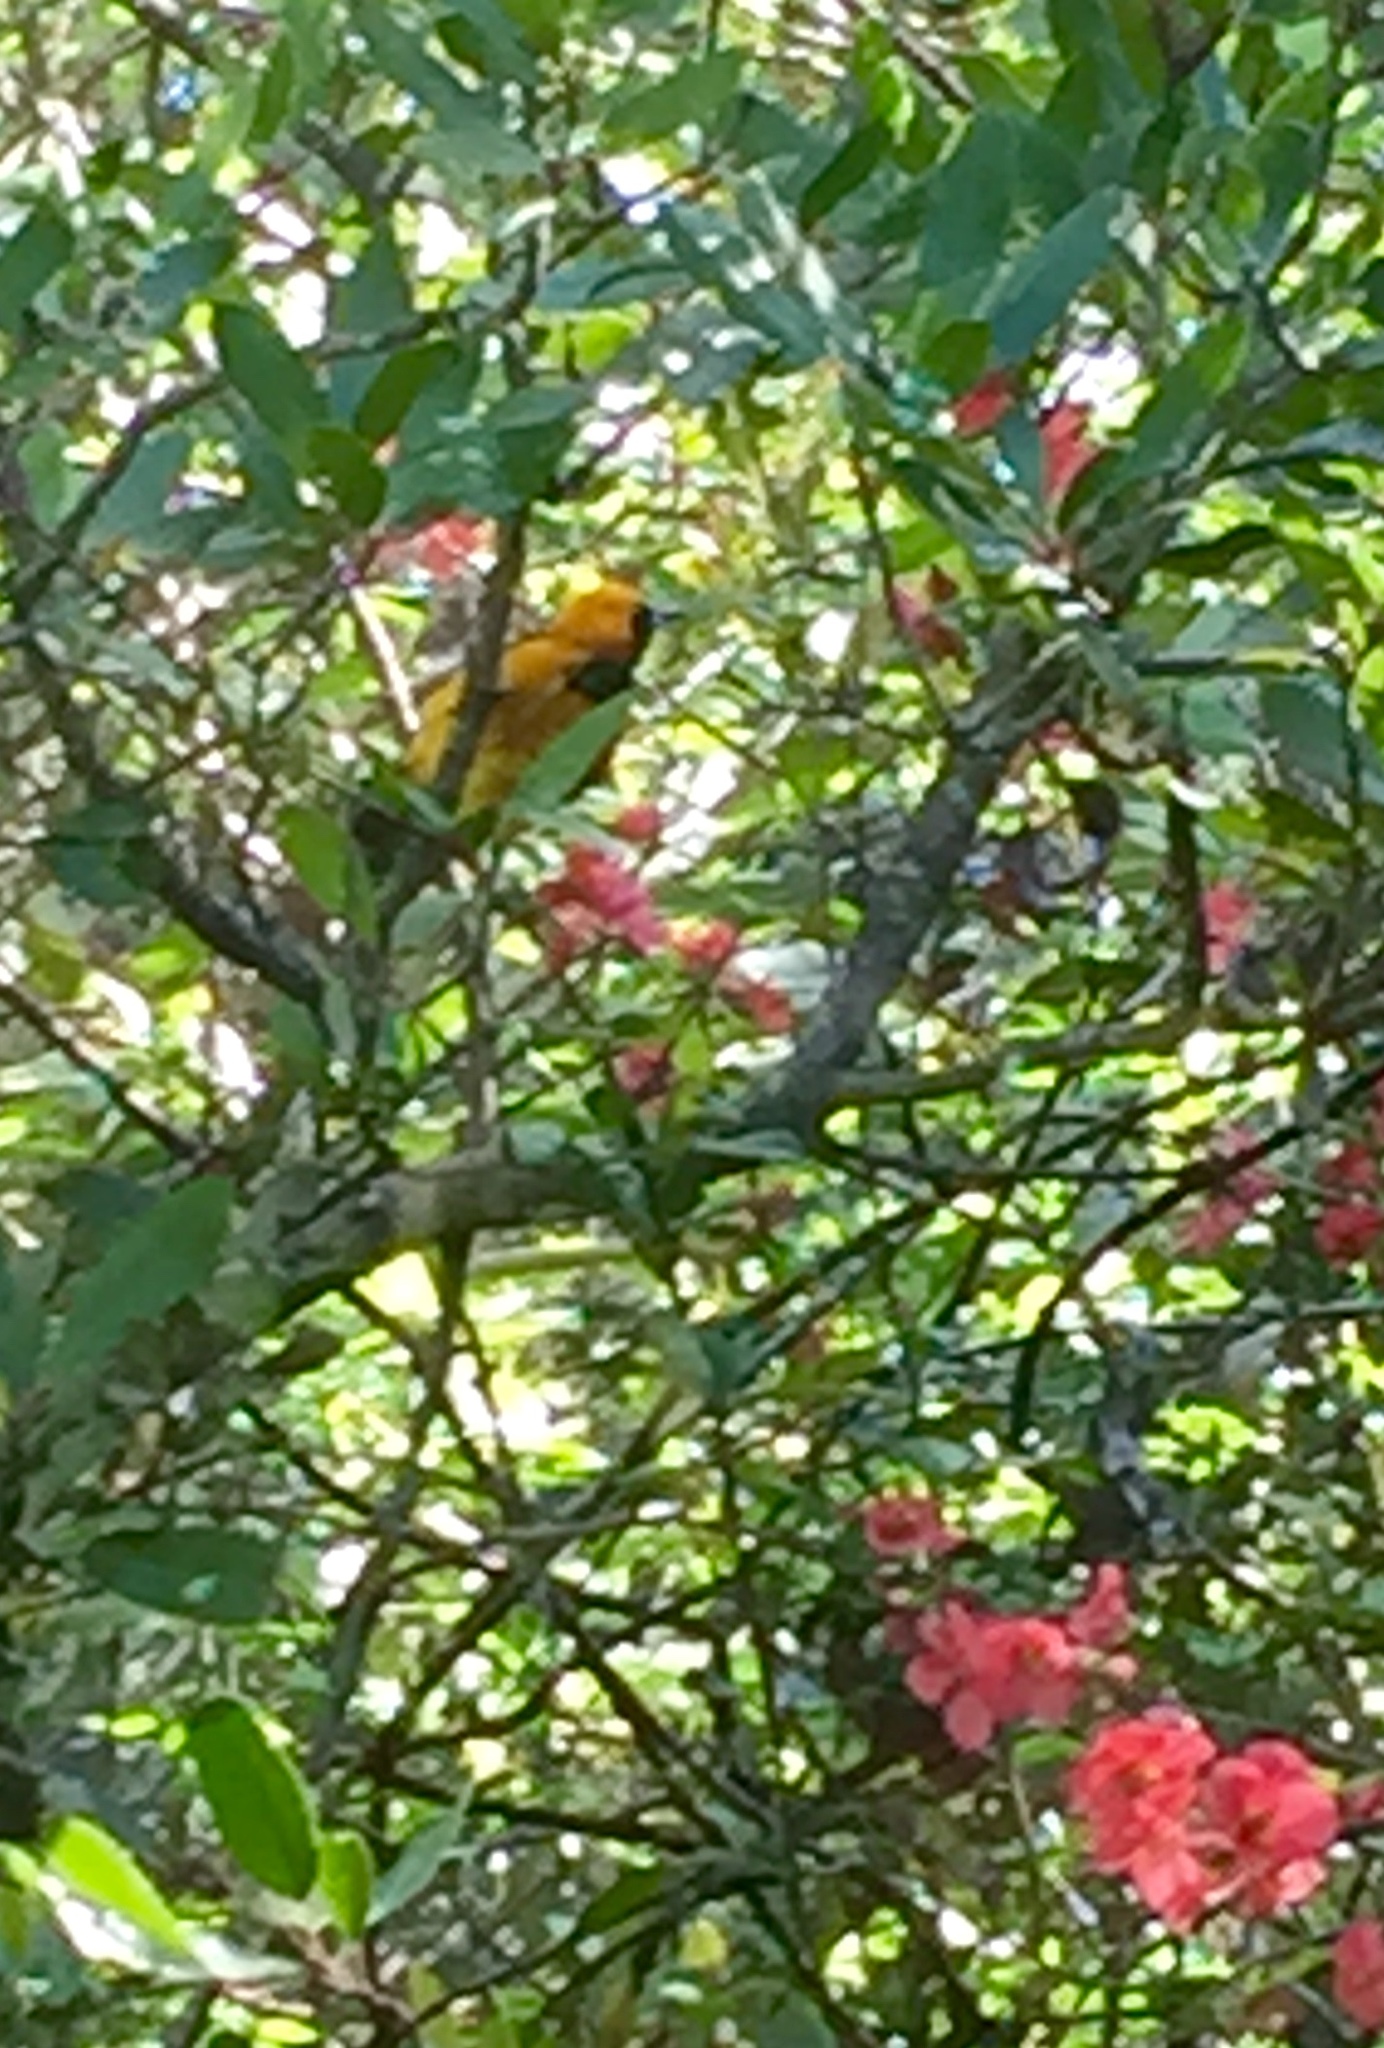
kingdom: Animalia
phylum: Chordata
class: Aves
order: Passeriformes
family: Icteridae
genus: Icterus
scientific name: Icterus cucullatus
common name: Hooded oriole
